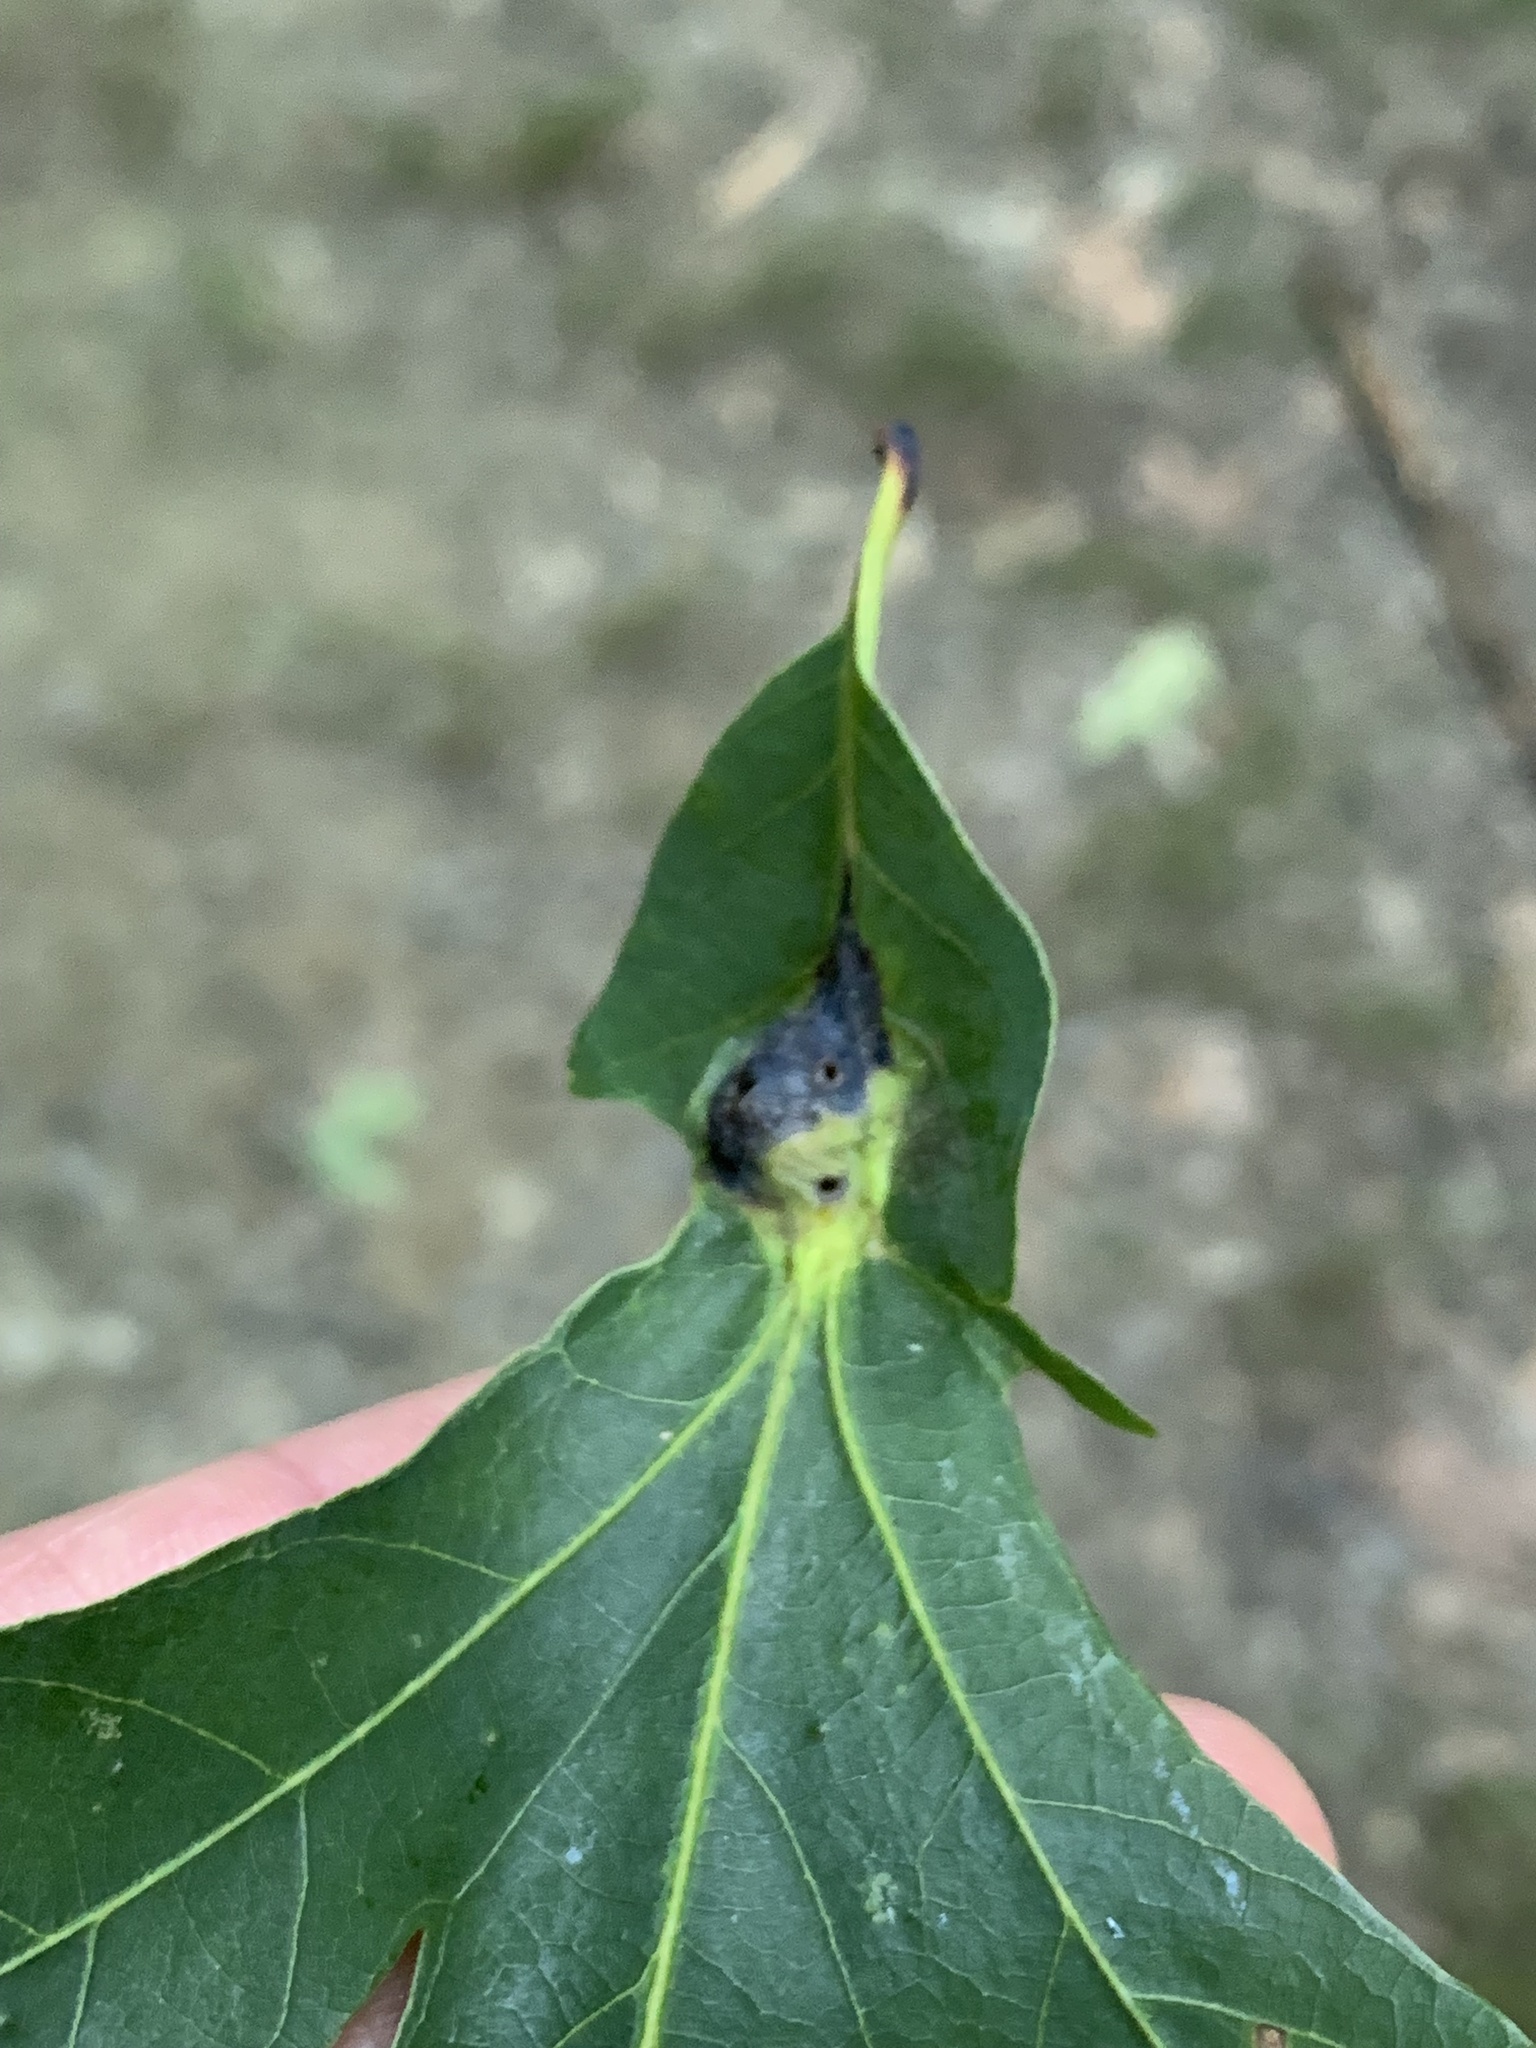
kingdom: Animalia
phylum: Arthropoda
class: Insecta
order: Hymenoptera
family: Cynipidae
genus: Andricus
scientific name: Andricus
